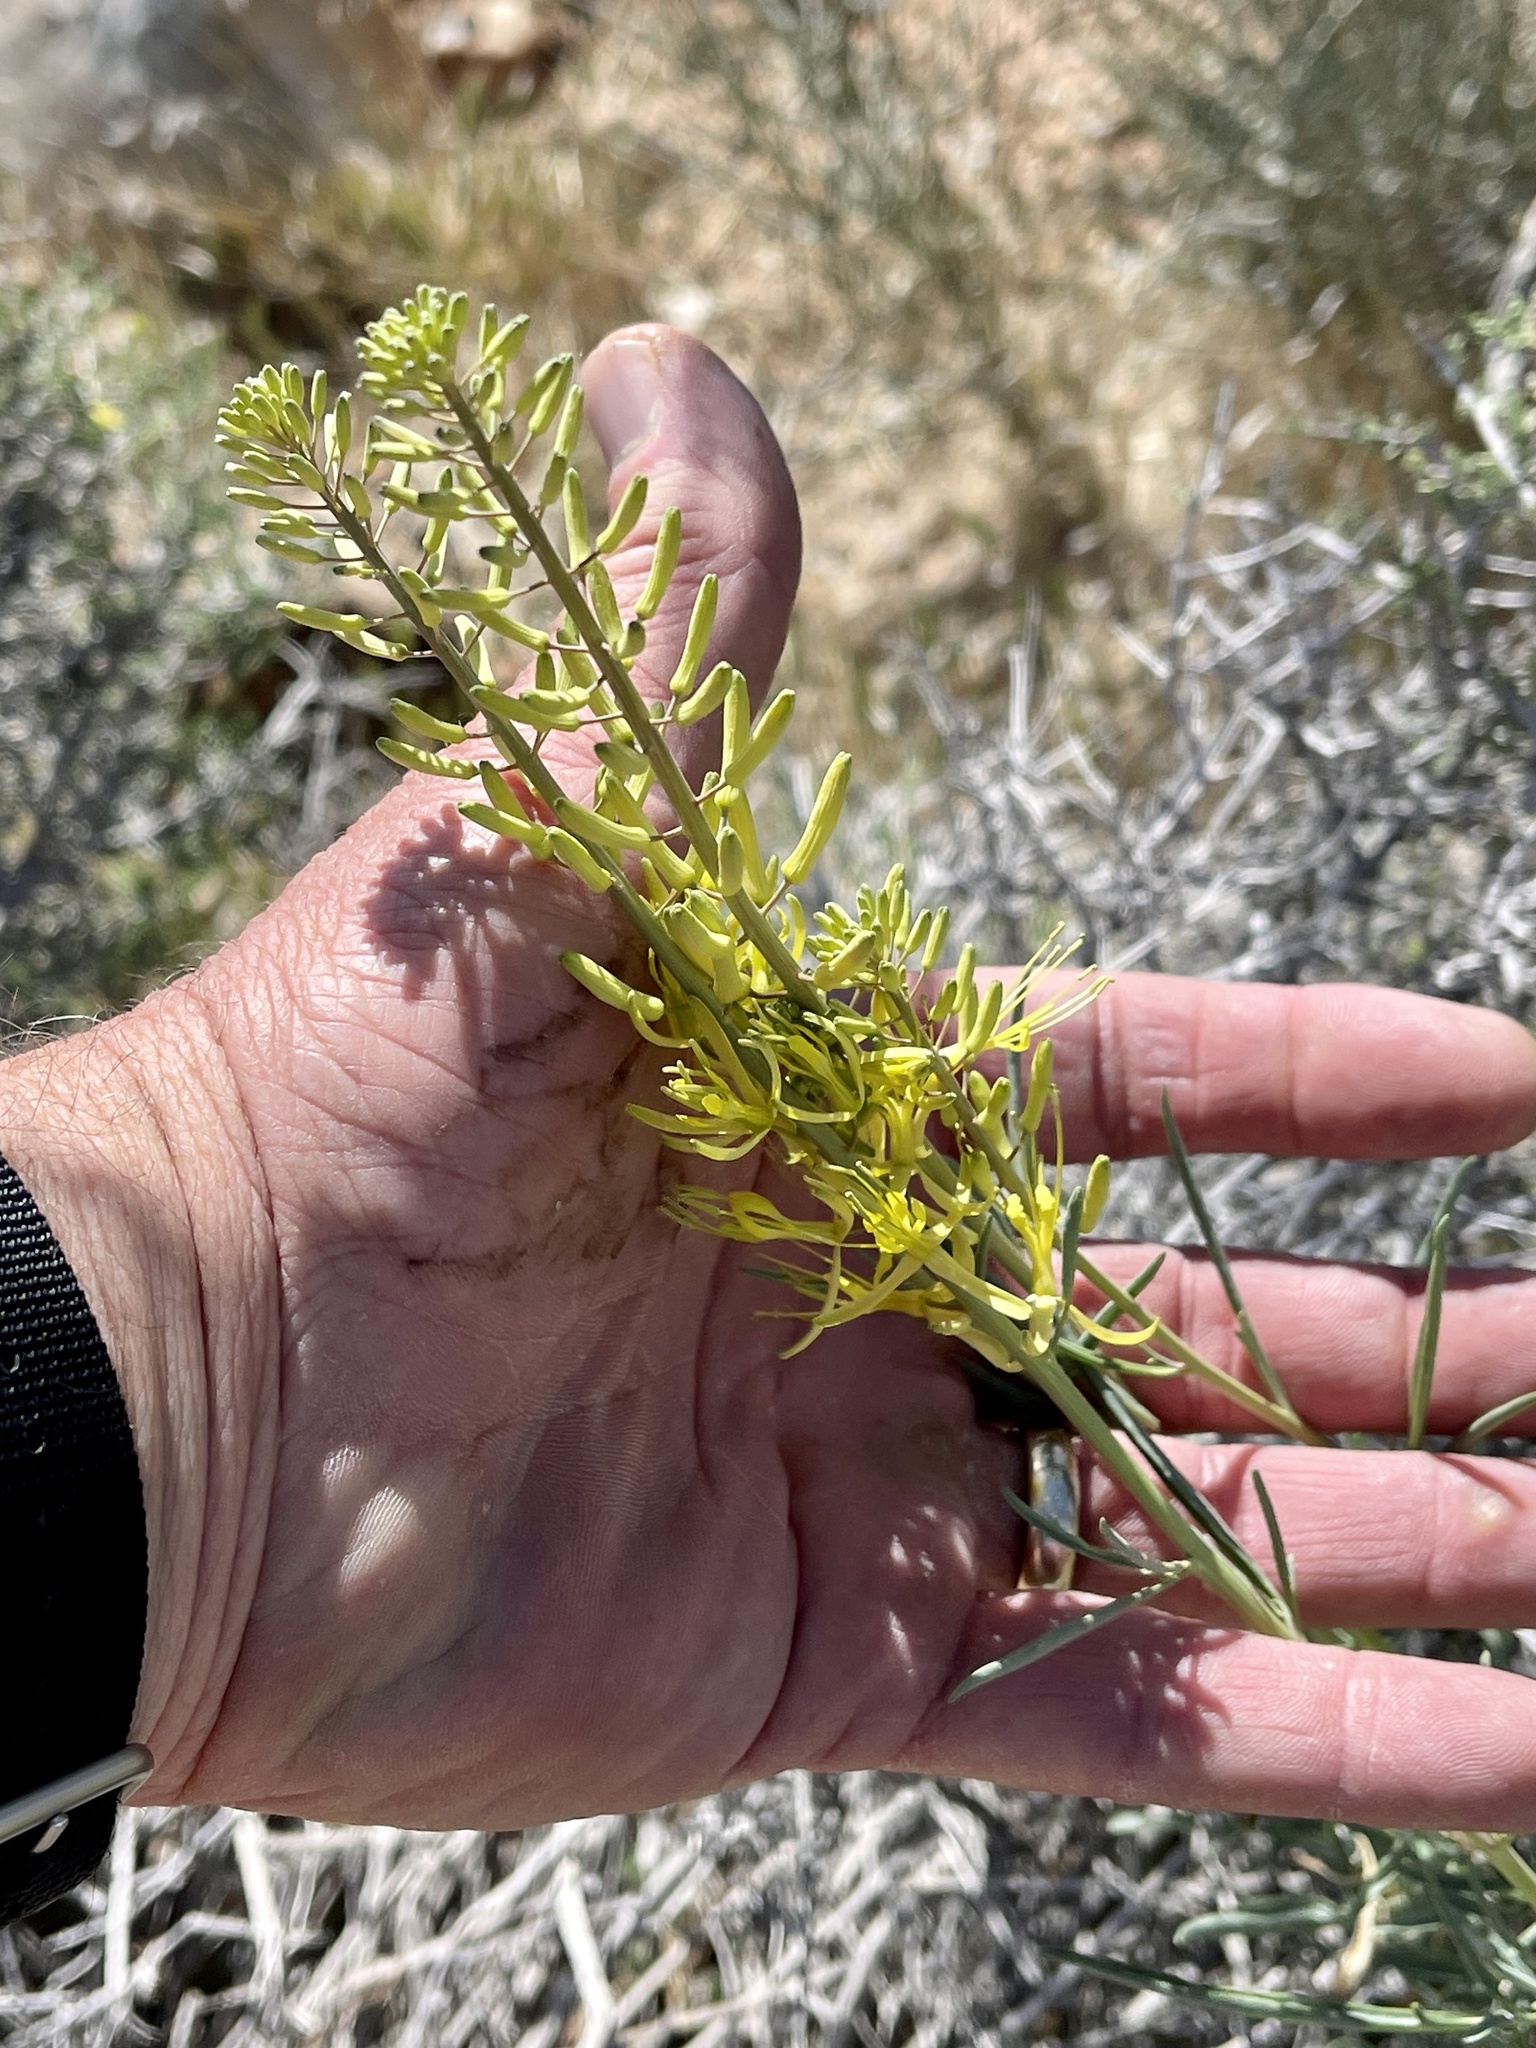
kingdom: Plantae
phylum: Tracheophyta
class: Magnoliopsida
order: Brassicales
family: Brassicaceae
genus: Stanleya
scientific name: Stanleya pinnata
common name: Prince's-plume
